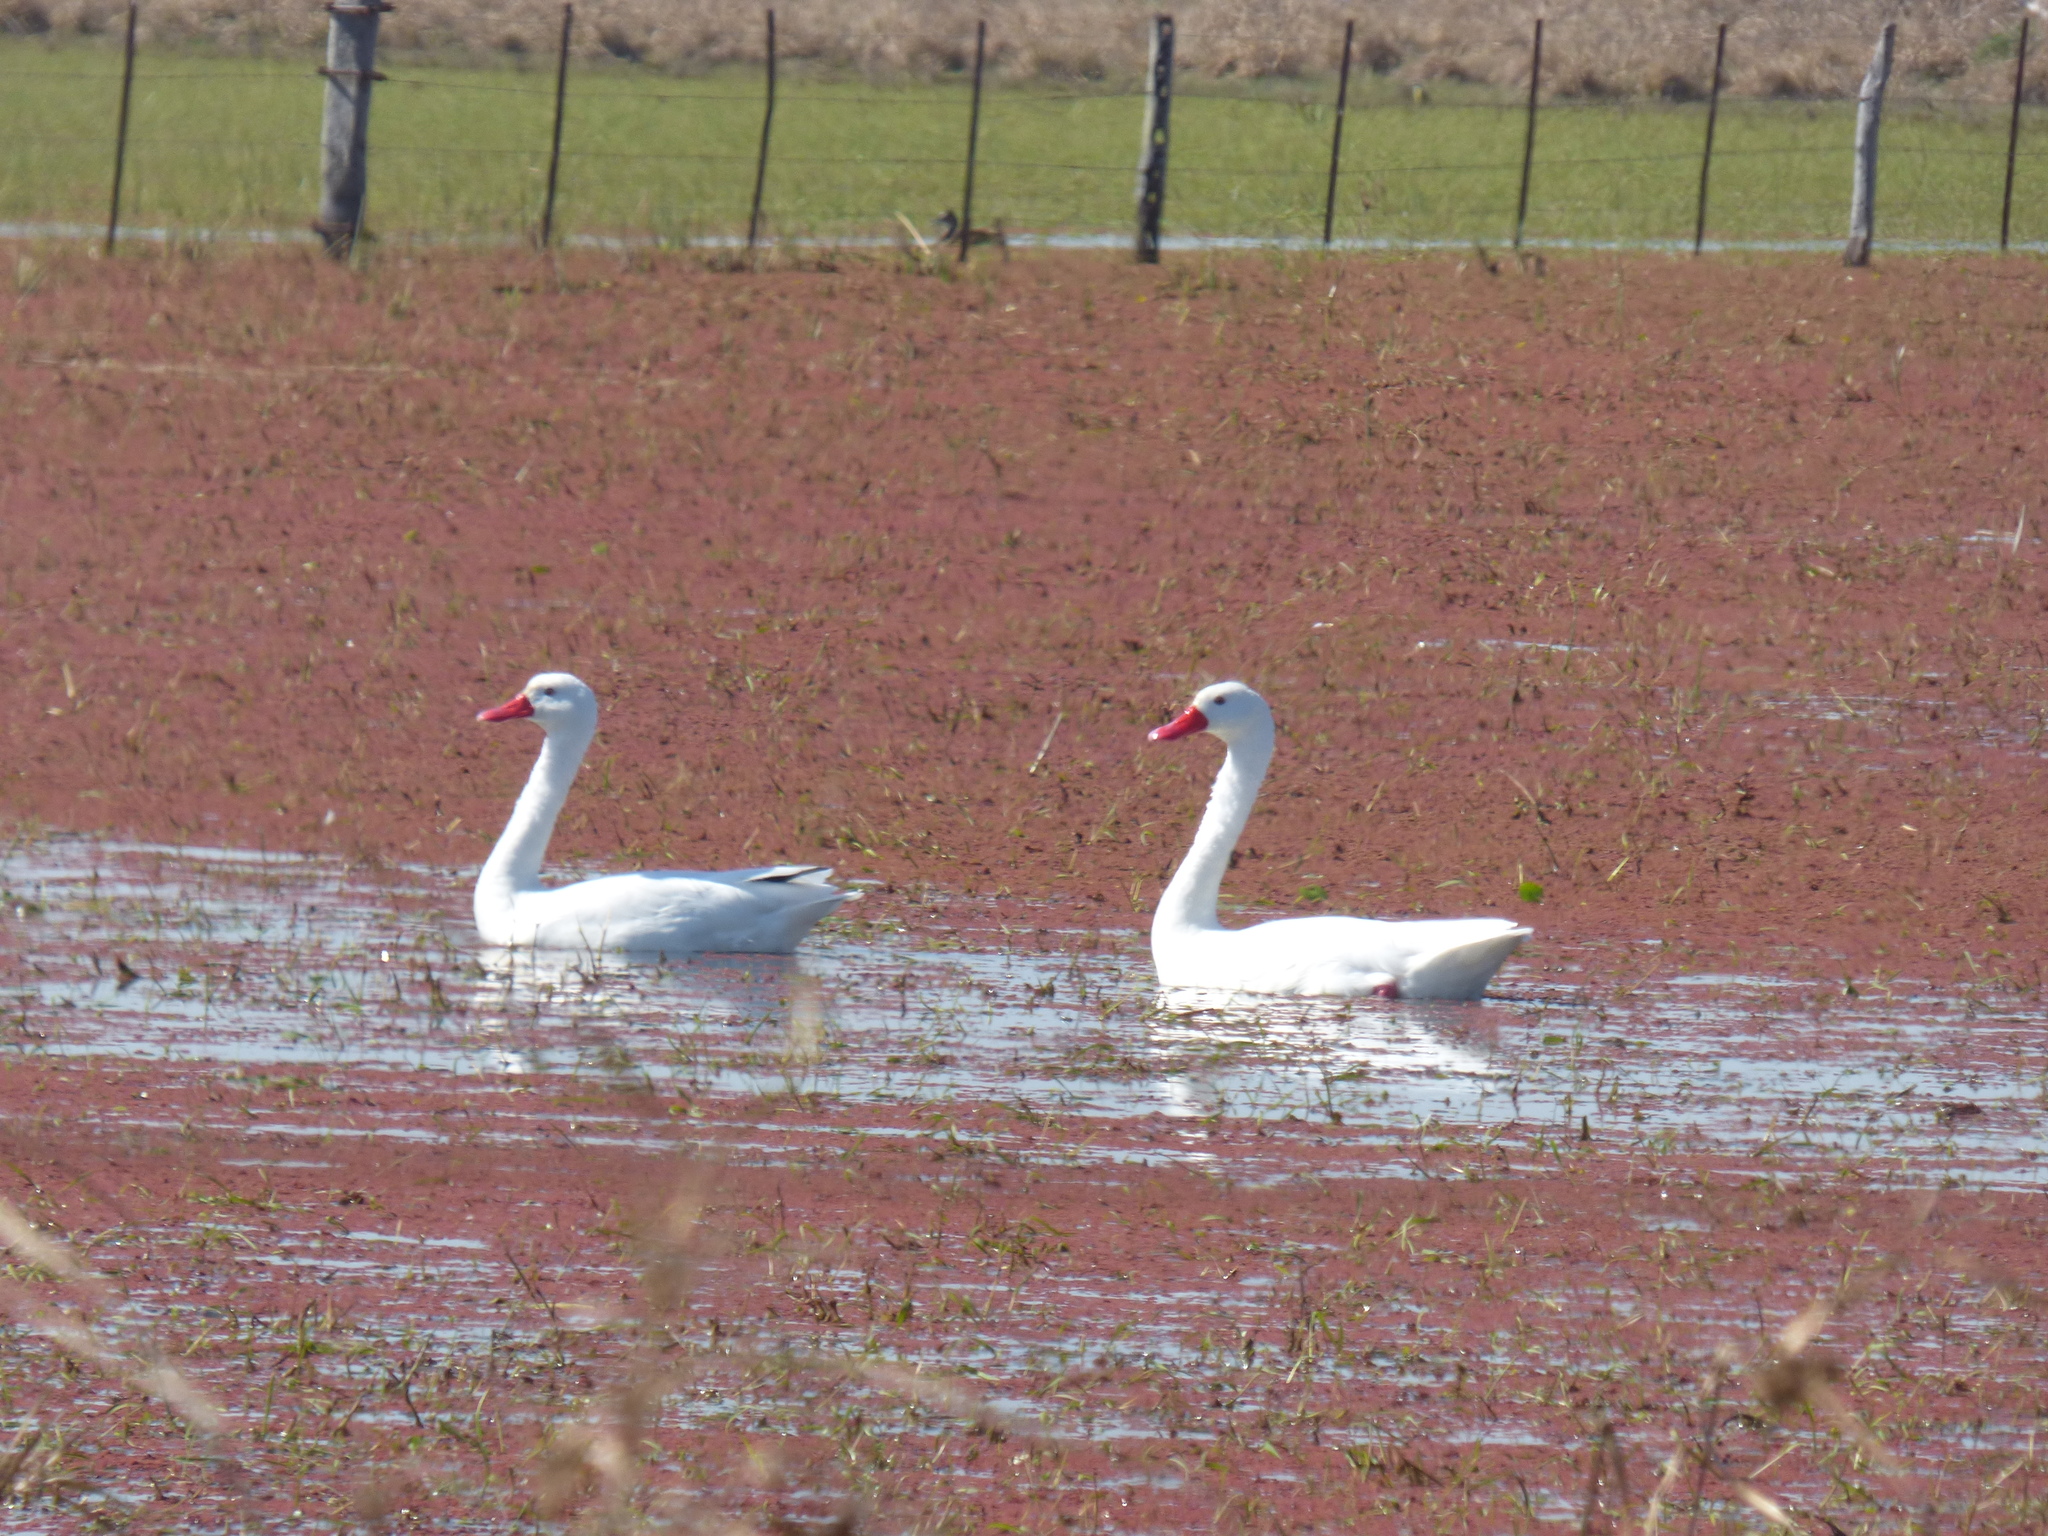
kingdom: Animalia
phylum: Chordata
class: Aves
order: Anseriformes
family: Anatidae
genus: Coscoroba
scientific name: Coscoroba coscoroba
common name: Coscoroba swan
